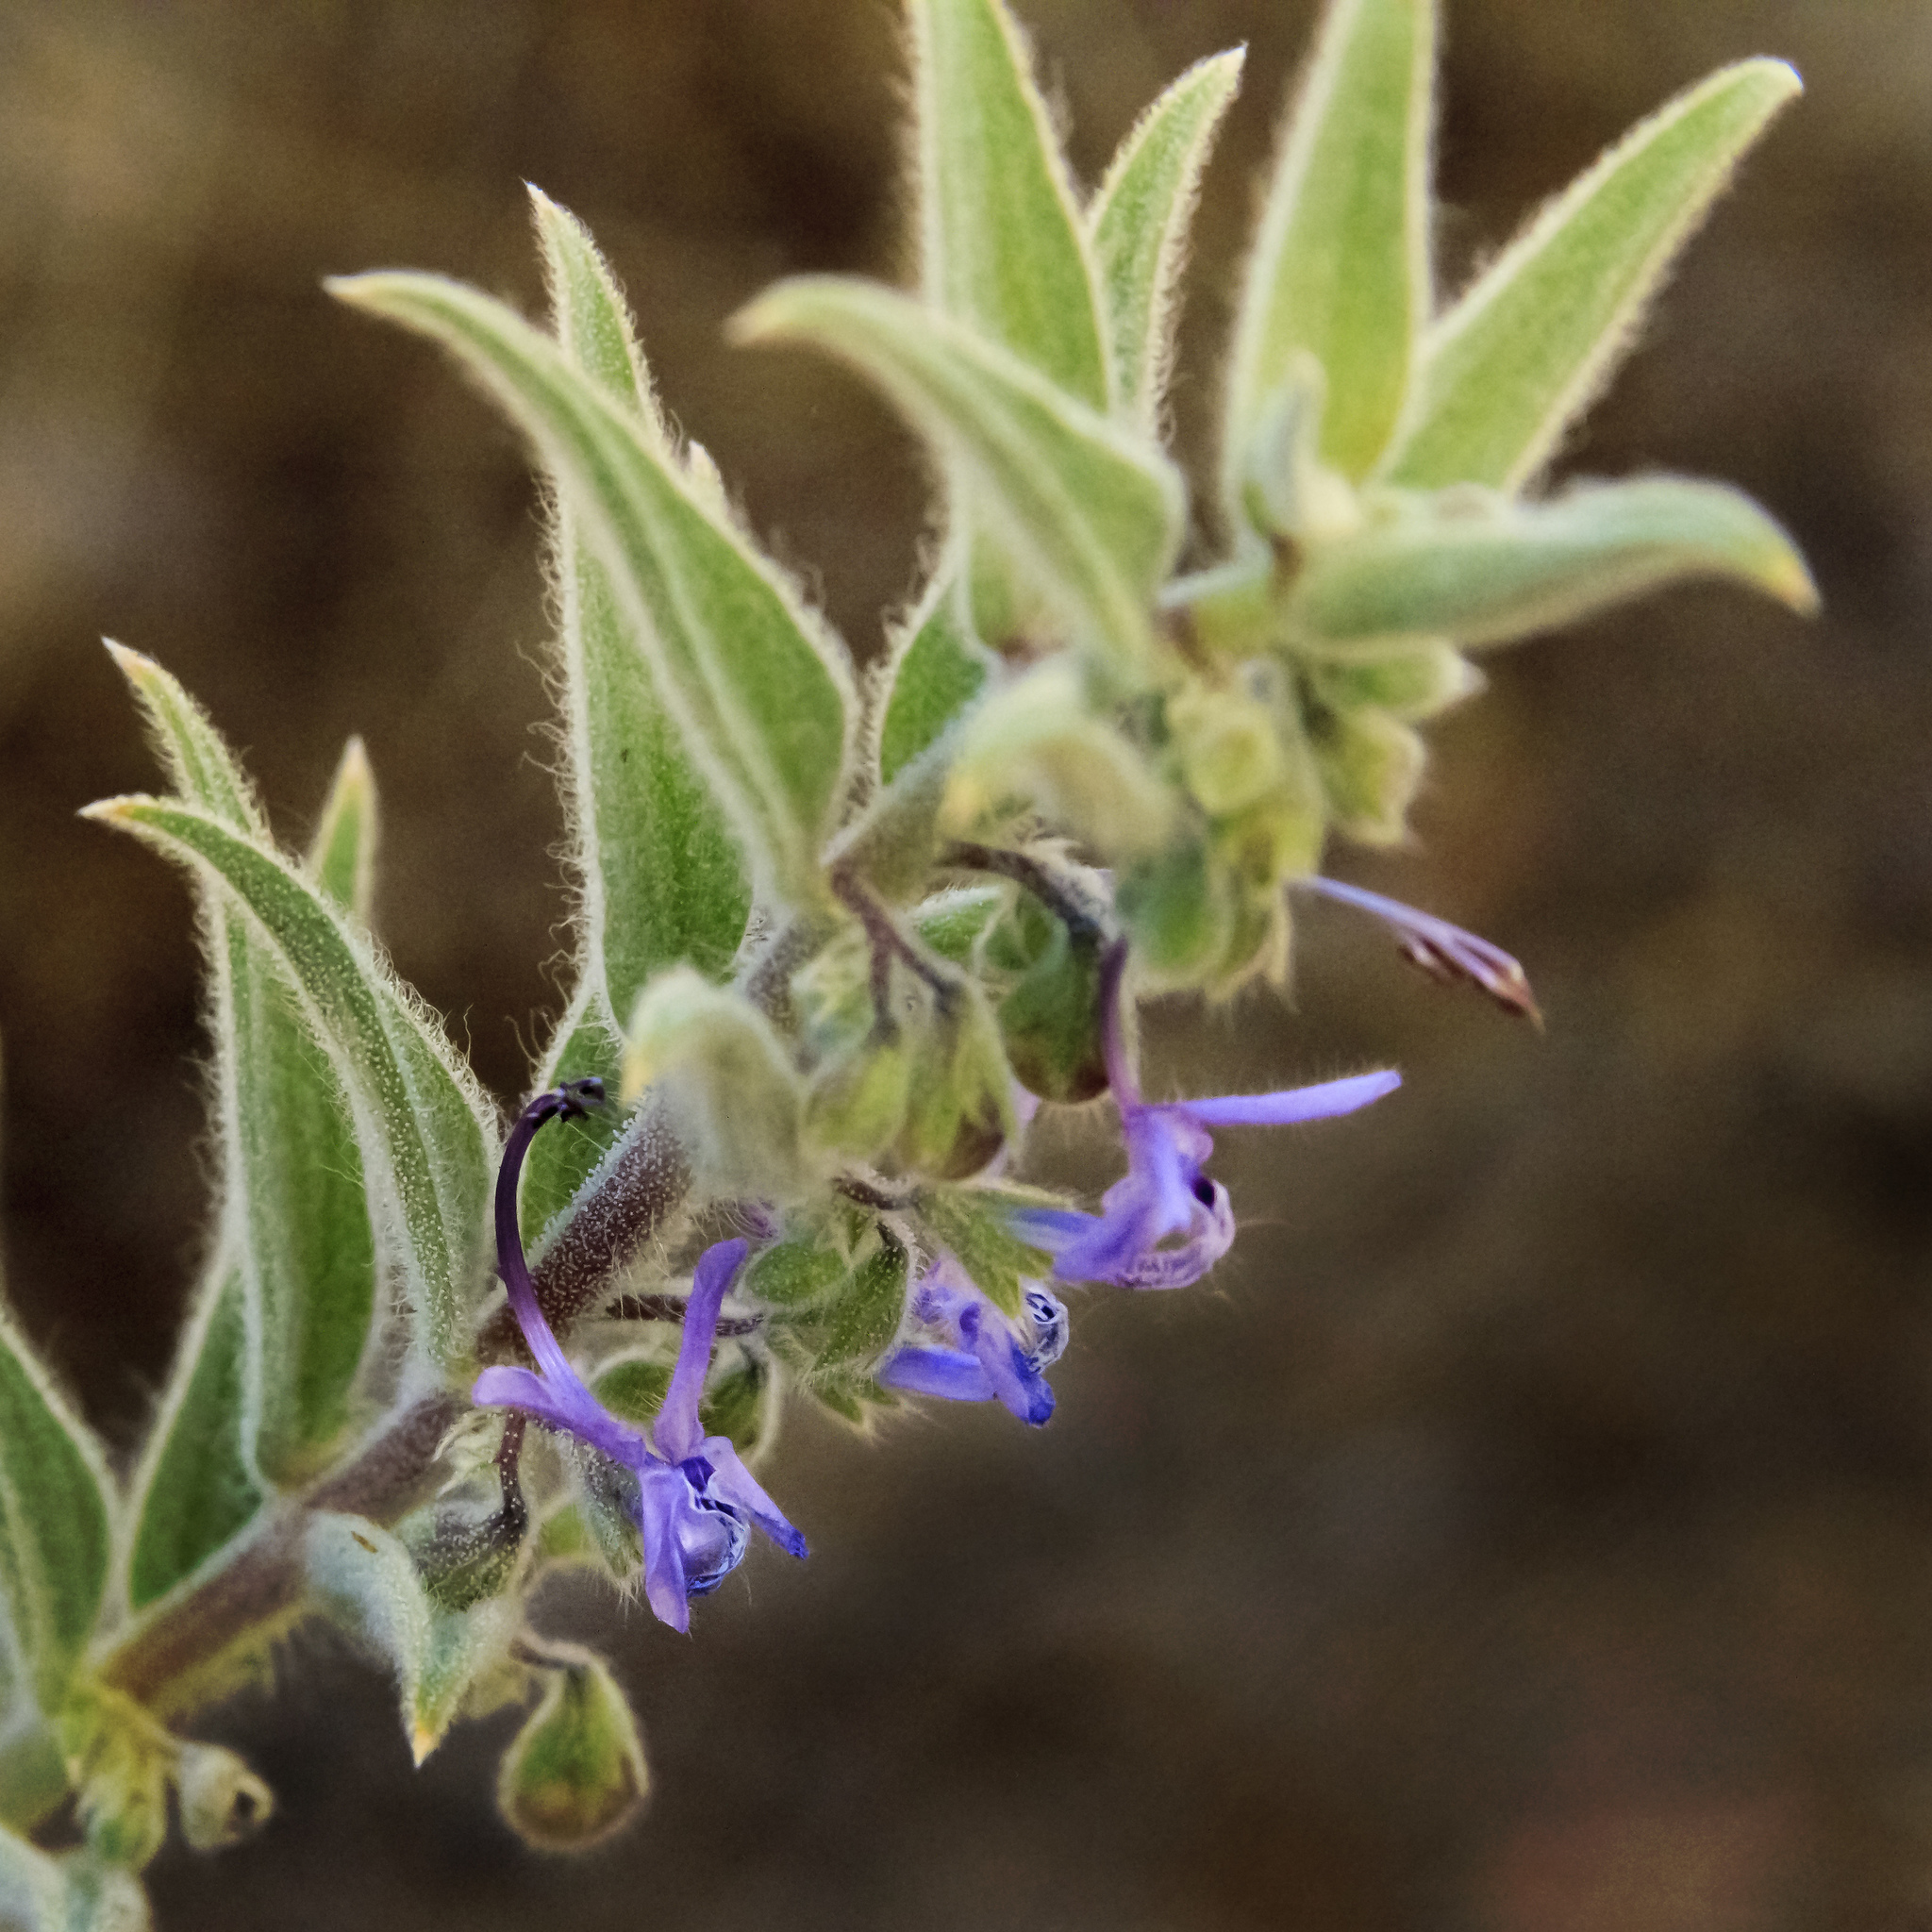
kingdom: Plantae
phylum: Tracheophyta
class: Magnoliopsida
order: Lamiales
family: Lamiaceae
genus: Trichostema
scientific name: Trichostema lanceolatum
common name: Vinegar-weed
